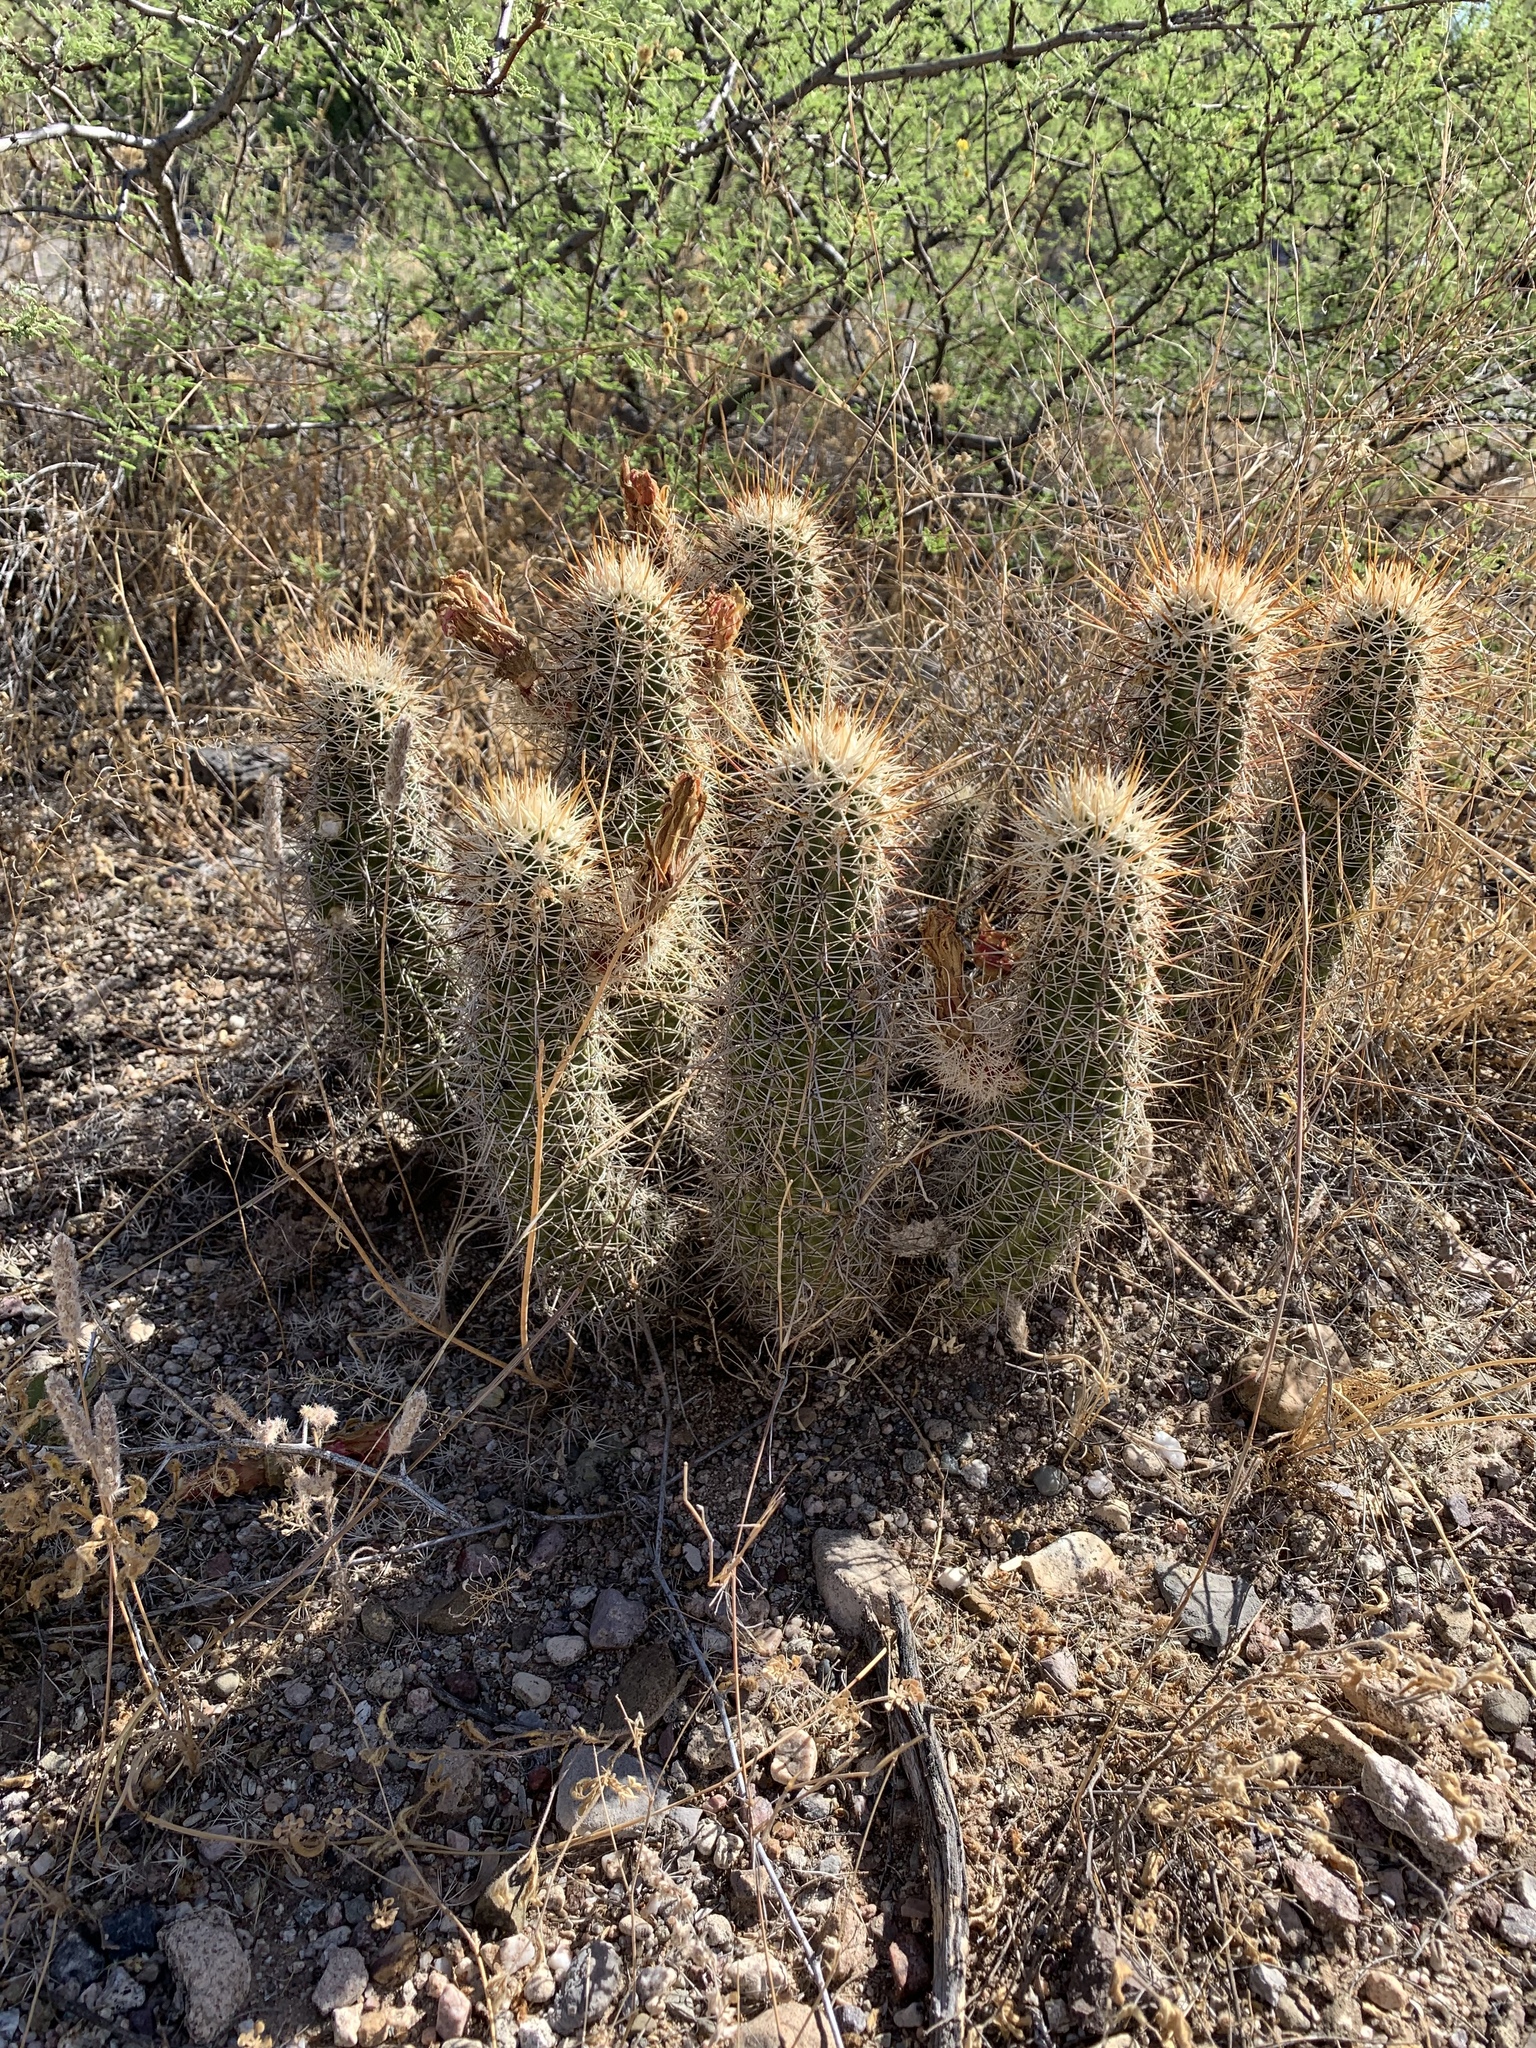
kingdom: Plantae
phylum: Tracheophyta
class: Magnoliopsida
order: Caryophyllales
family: Cactaceae
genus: Echinocereus
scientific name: Echinocereus fasciculatus
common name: Bundle hedgehog
